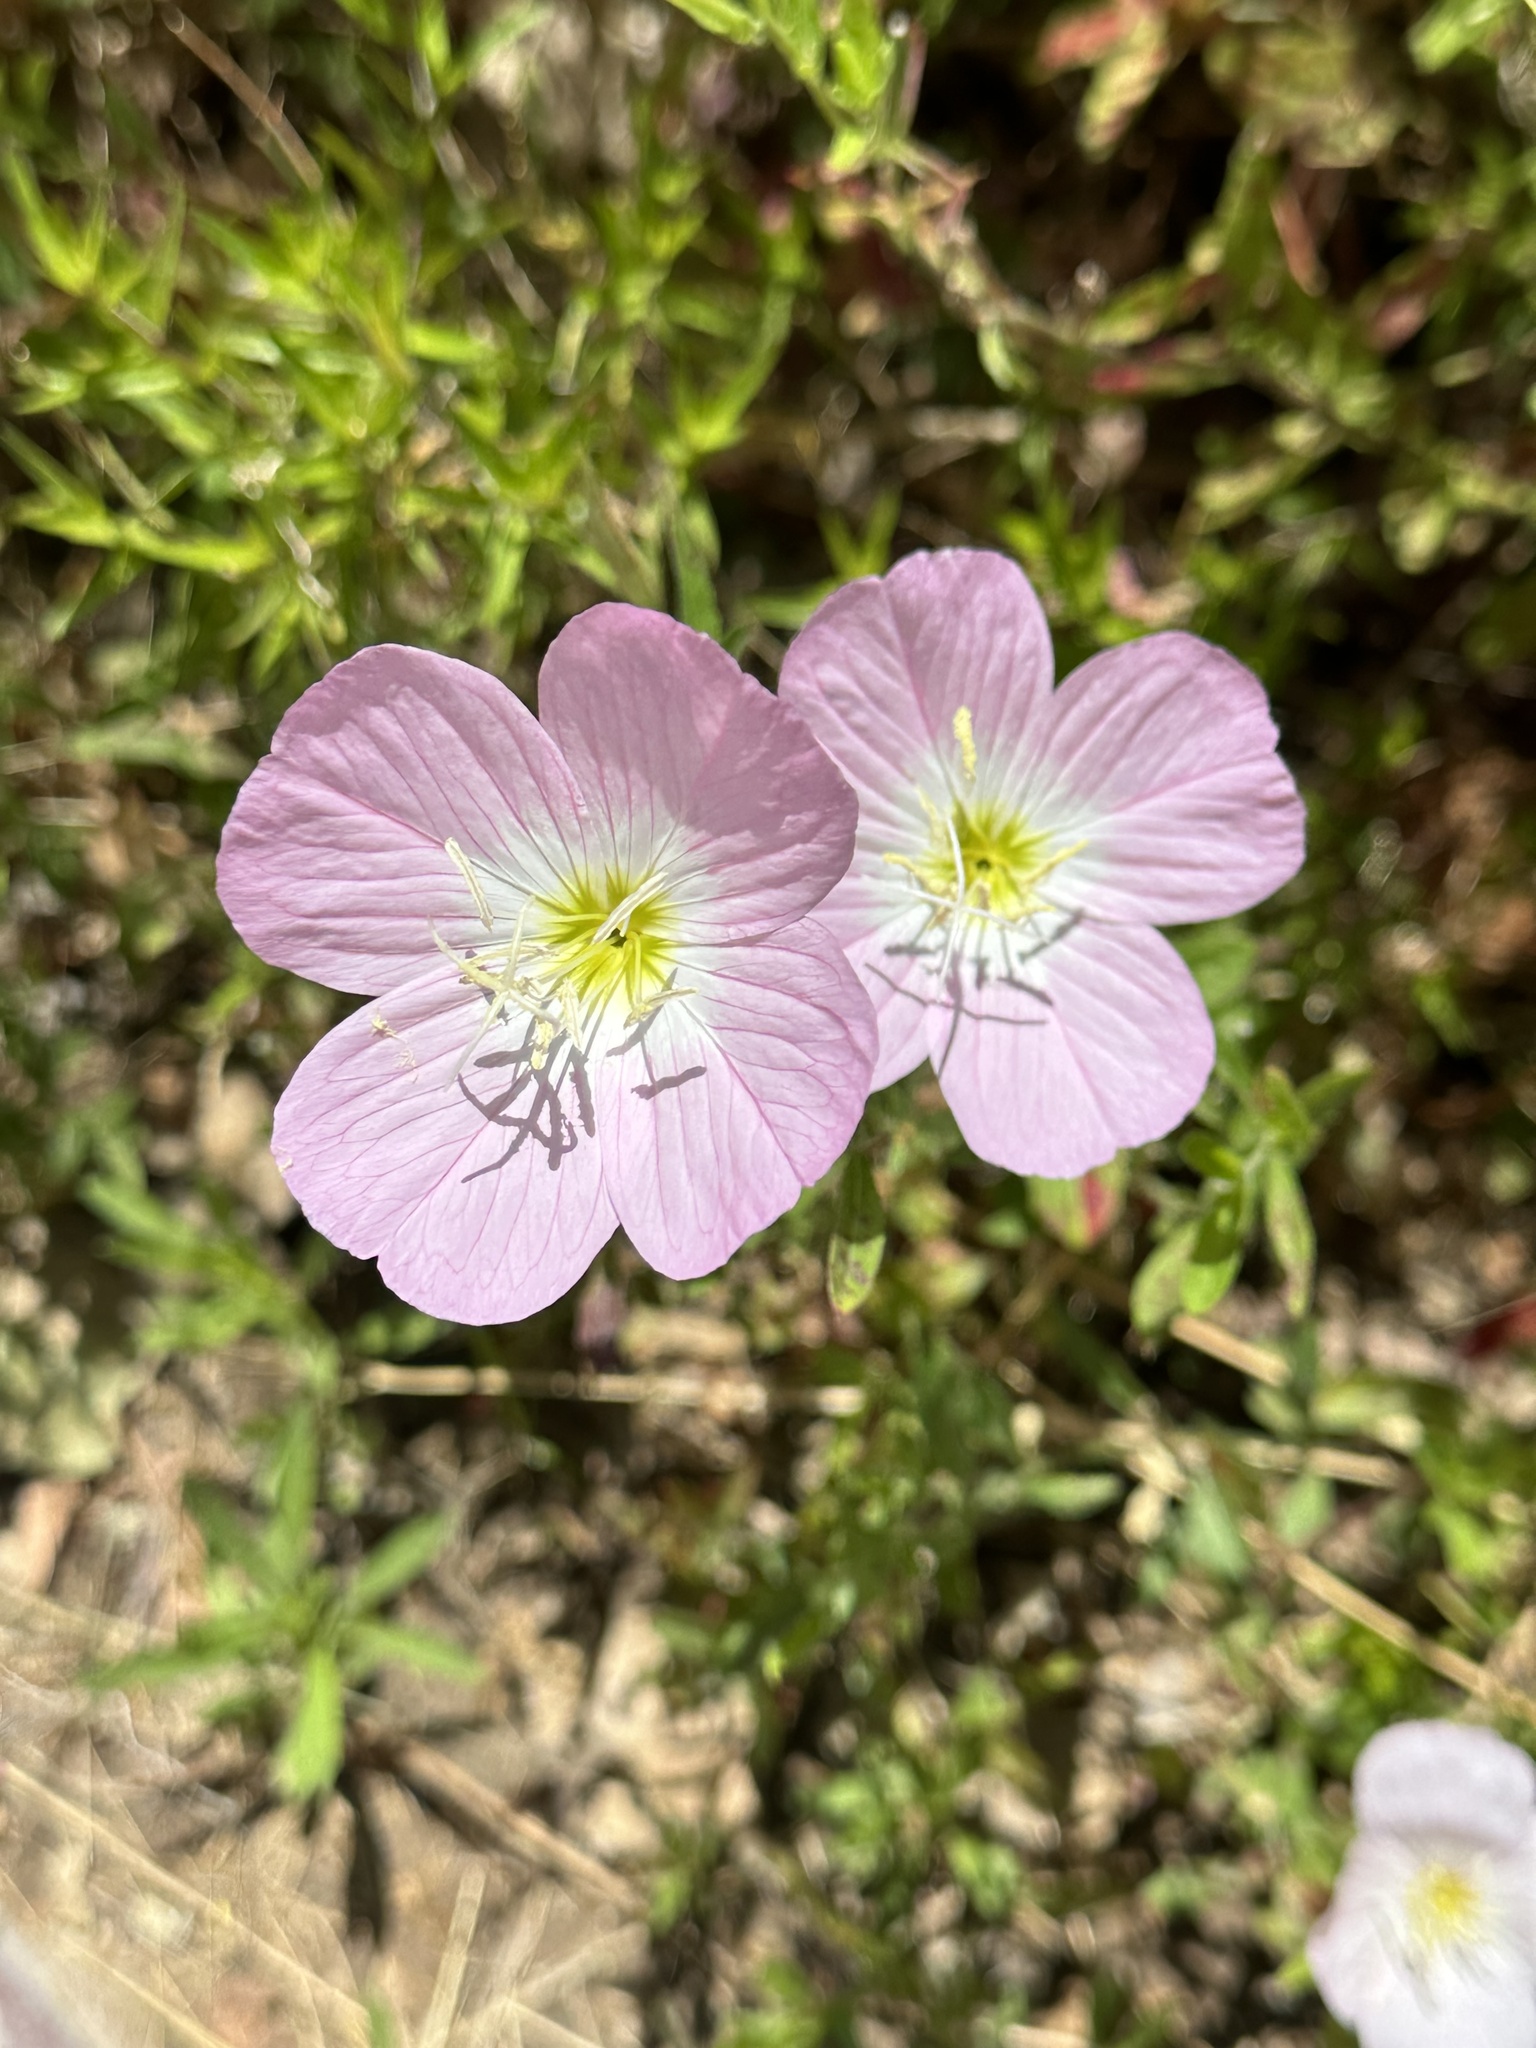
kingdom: Plantae
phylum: Tracheophyta
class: Magnoliopsida
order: Myrtales
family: Onagraceae
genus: Oenothera
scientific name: Oenothera speciosa
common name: White evening-primrose
